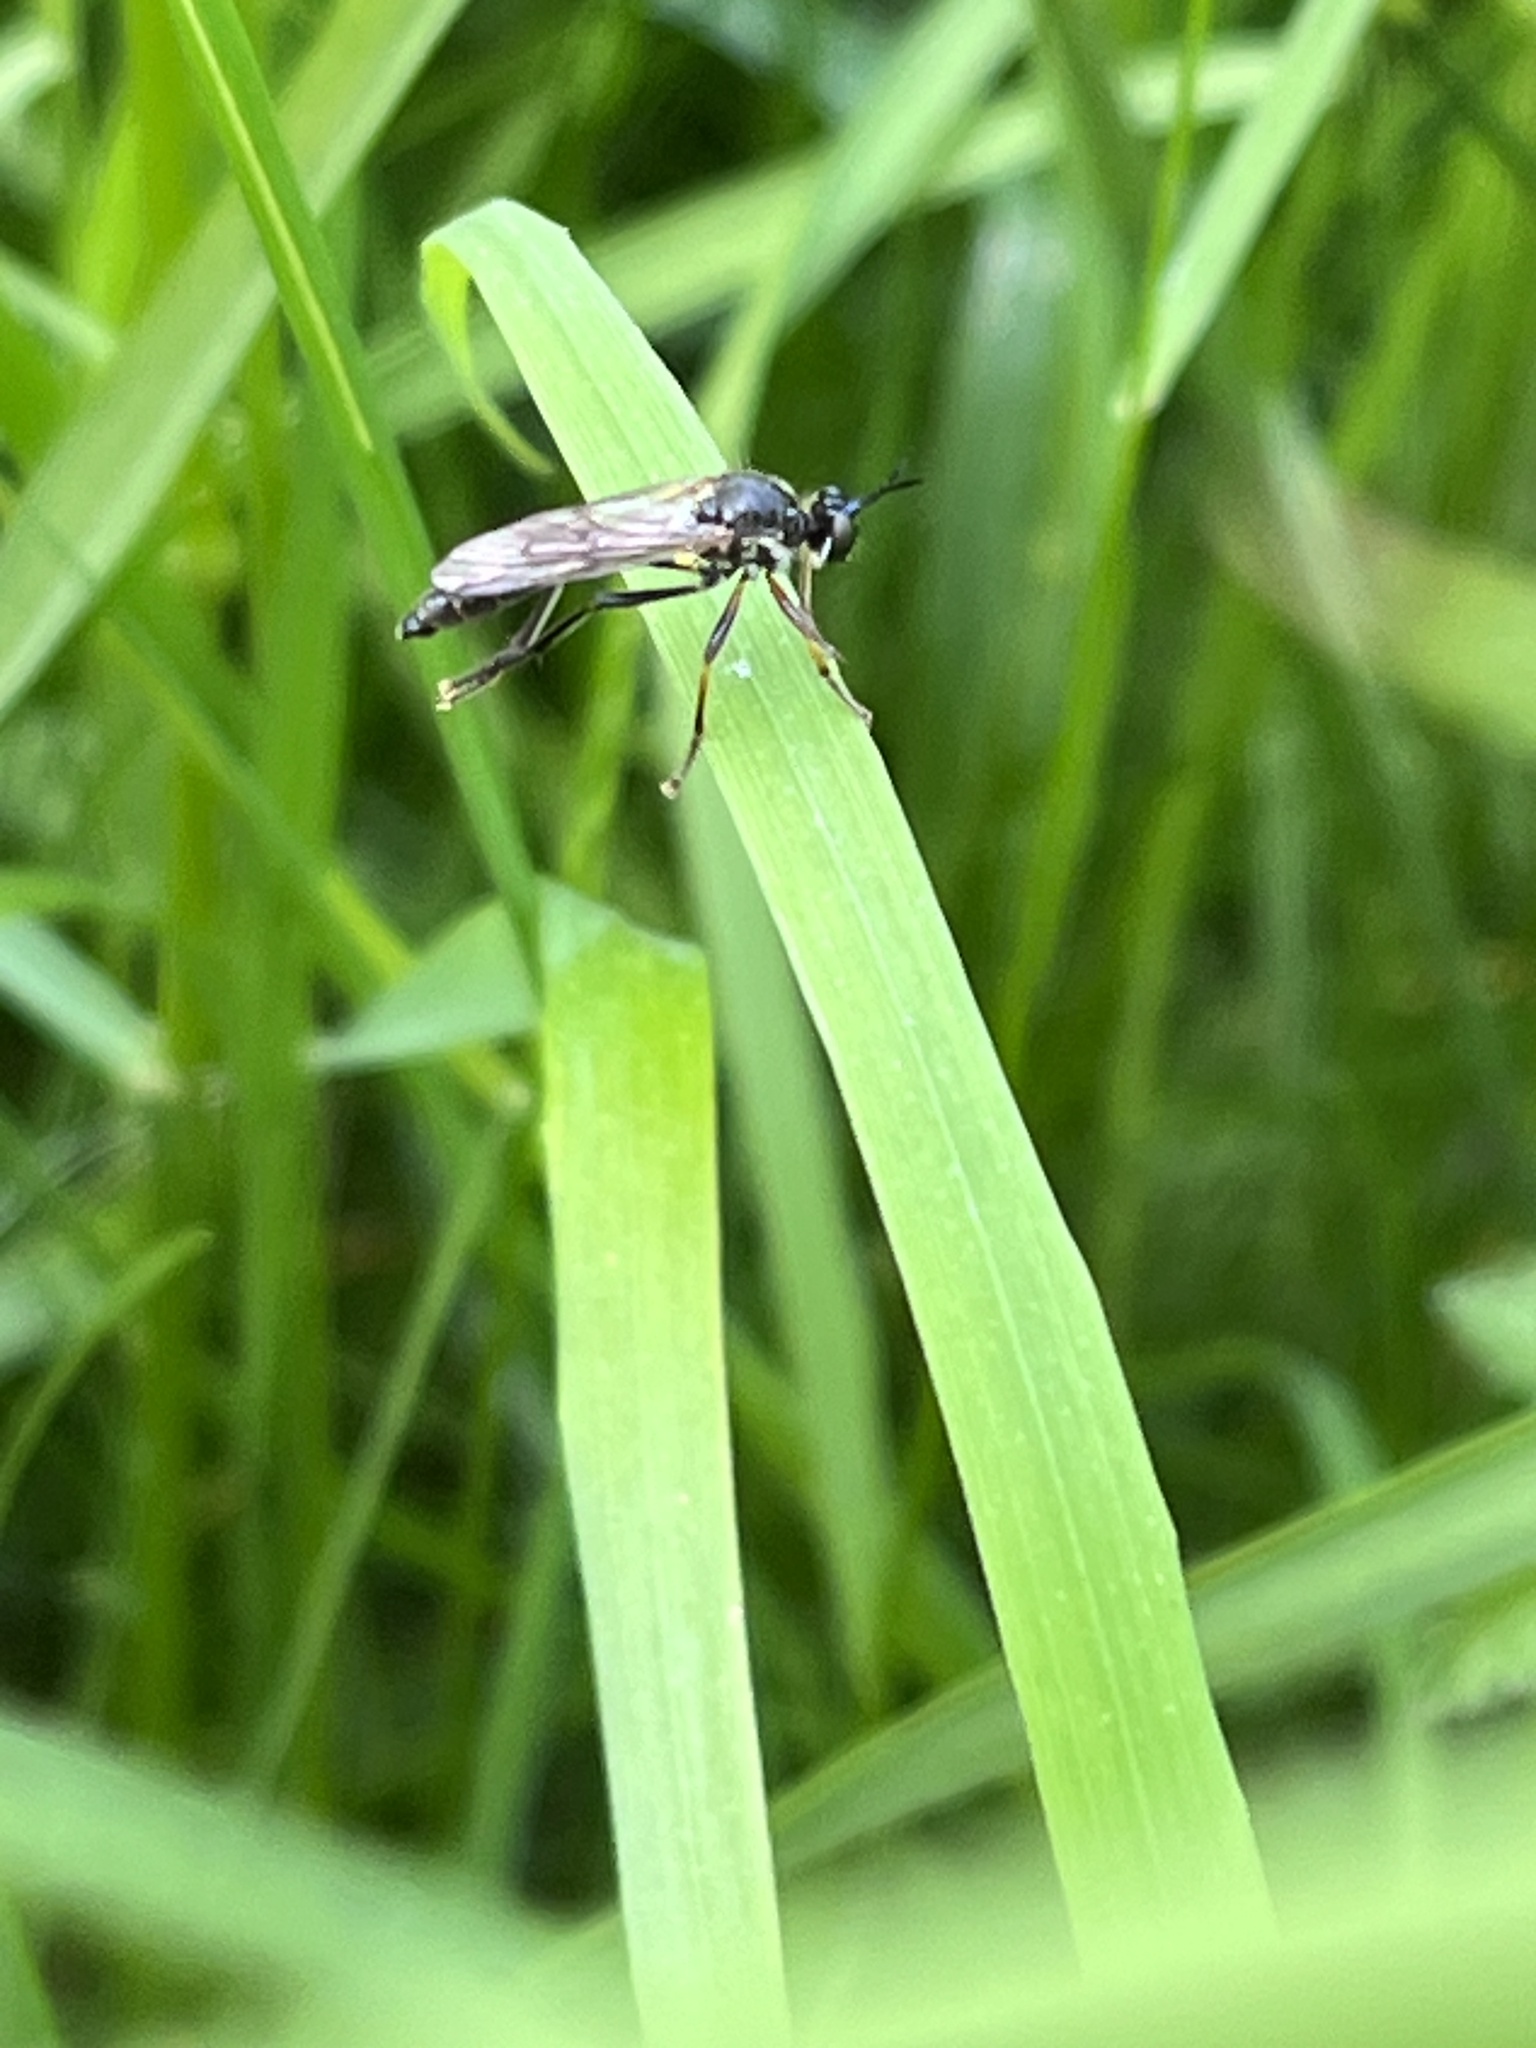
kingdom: Animalia
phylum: Arthropoda
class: Insecta
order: Diptera
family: Asilidae
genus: Dioctria
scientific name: Dioctria rufipes
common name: Common red-legged robberfly
